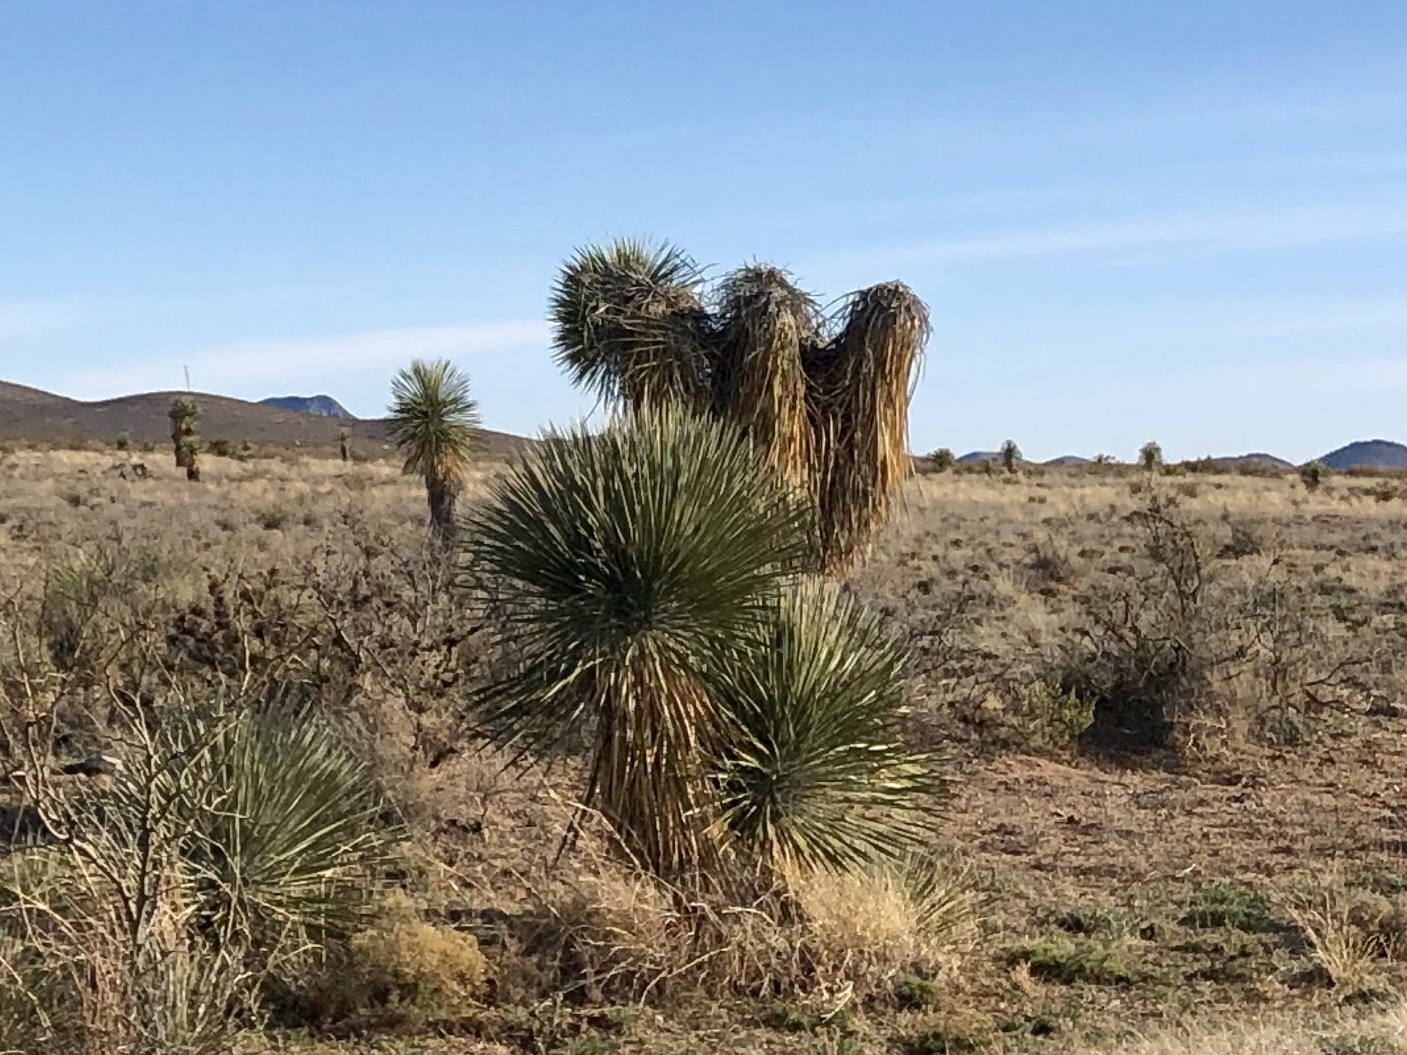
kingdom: Plantae
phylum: Tracheophyta
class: Liliopsida
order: Asparagales
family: Asparagaceae
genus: Yucca
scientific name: Yucca elata
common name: Palmella
